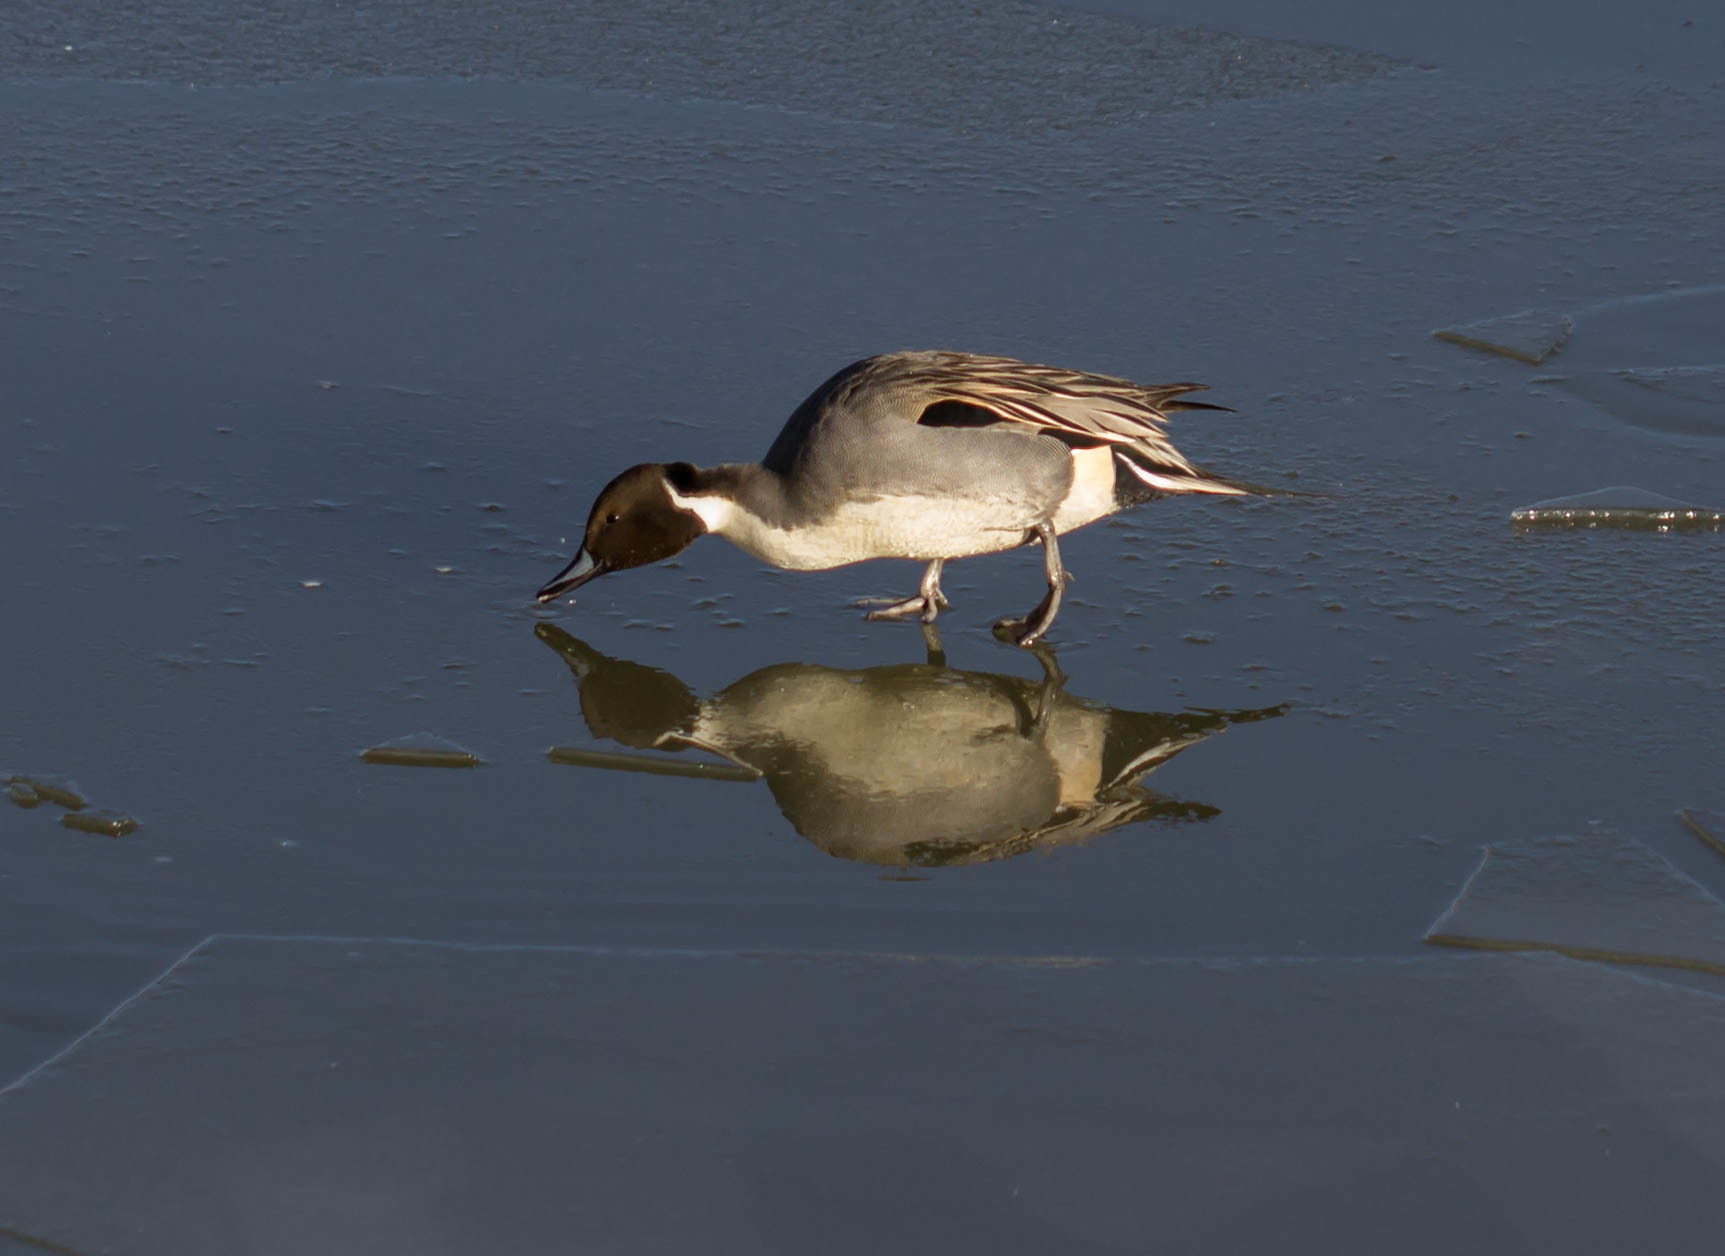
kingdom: Animalia
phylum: Chordata
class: Aves
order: Anseriformes
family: Anatidae
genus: Anas
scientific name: Anas acuta
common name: Northern pintail
